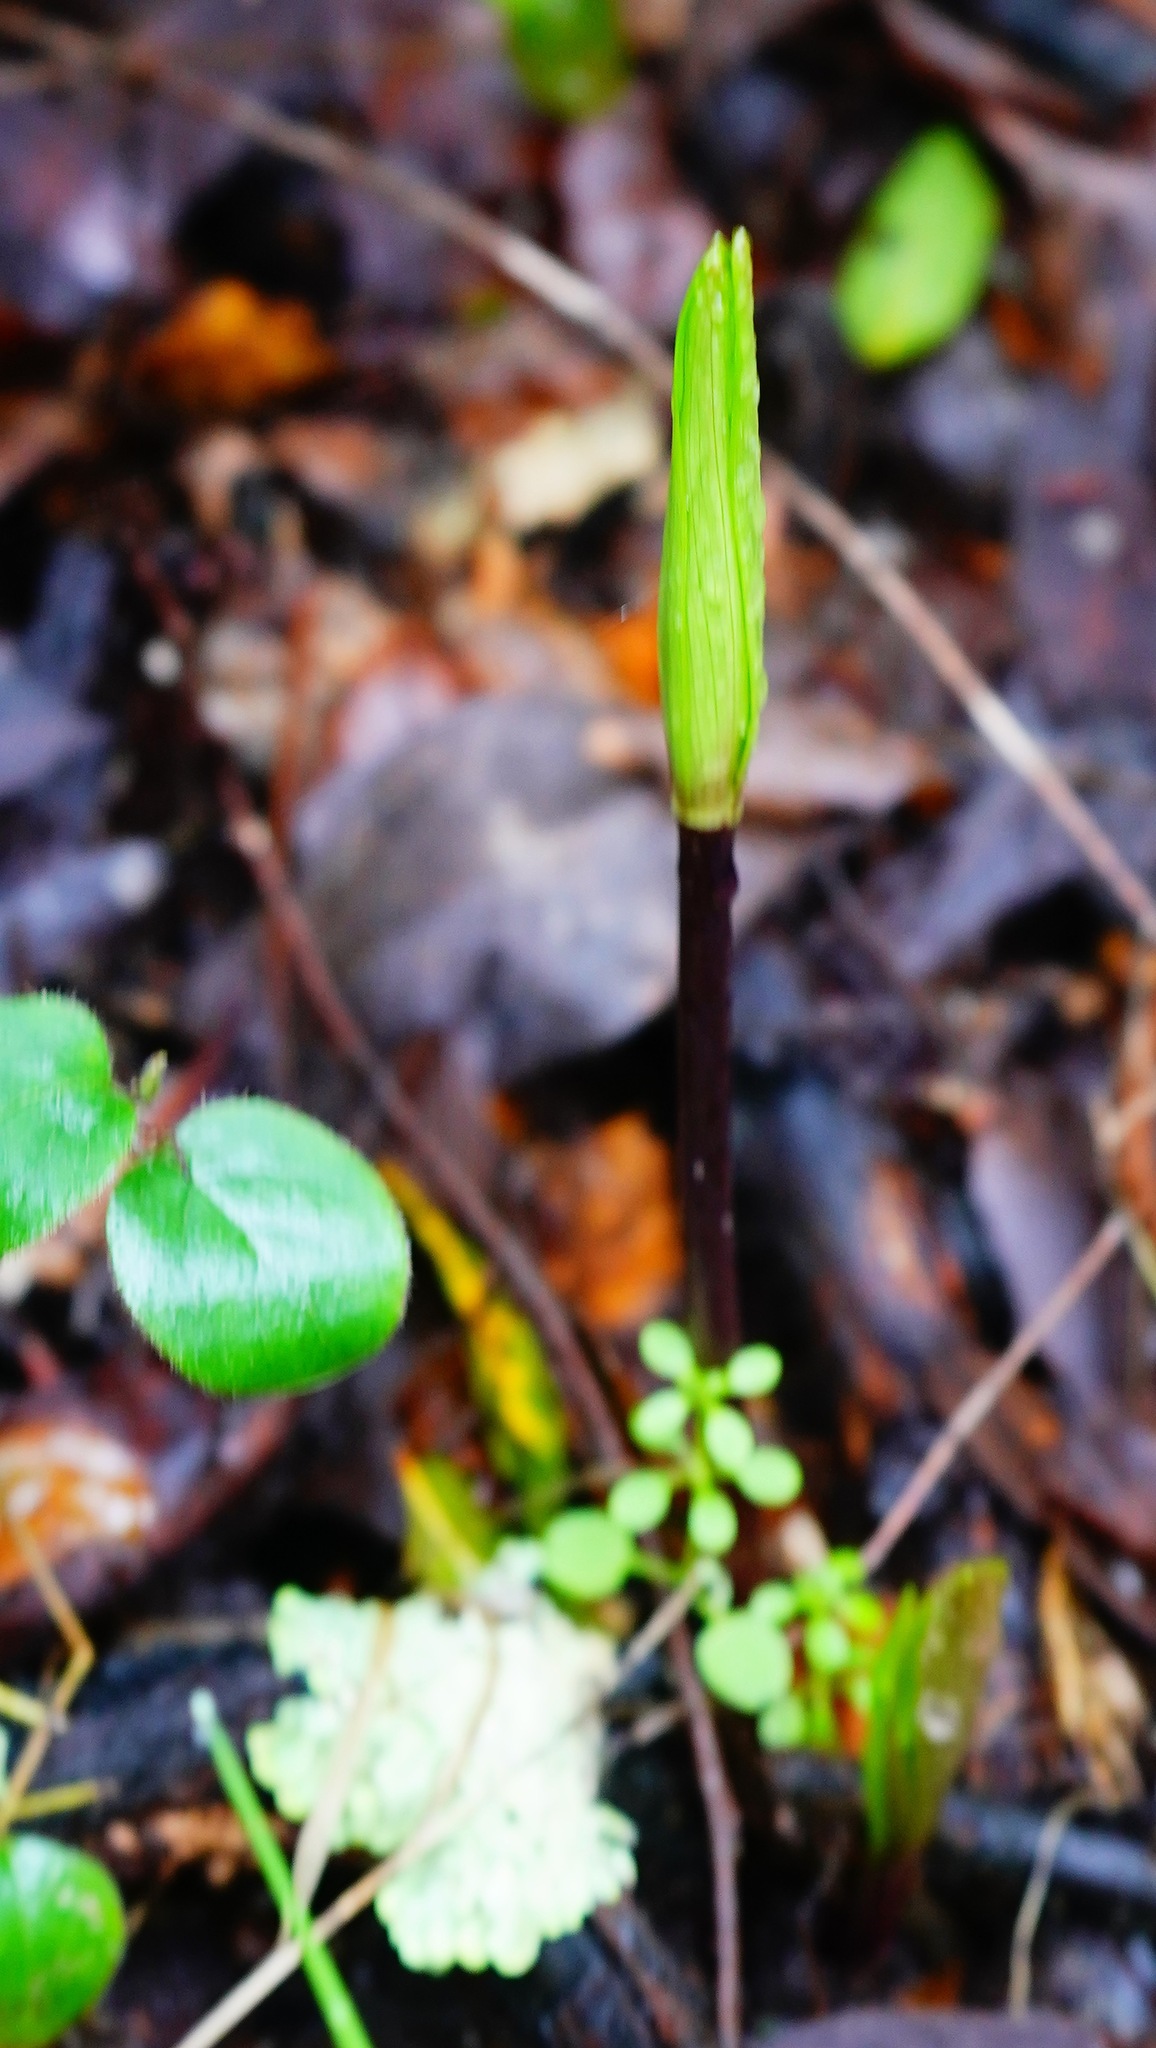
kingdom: Plantae
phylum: Tracheophyta
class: Liliopsida
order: Liliales
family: Liliaceae
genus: Fritillaria
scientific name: Fritillaria affinis
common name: Ojai fritillary
